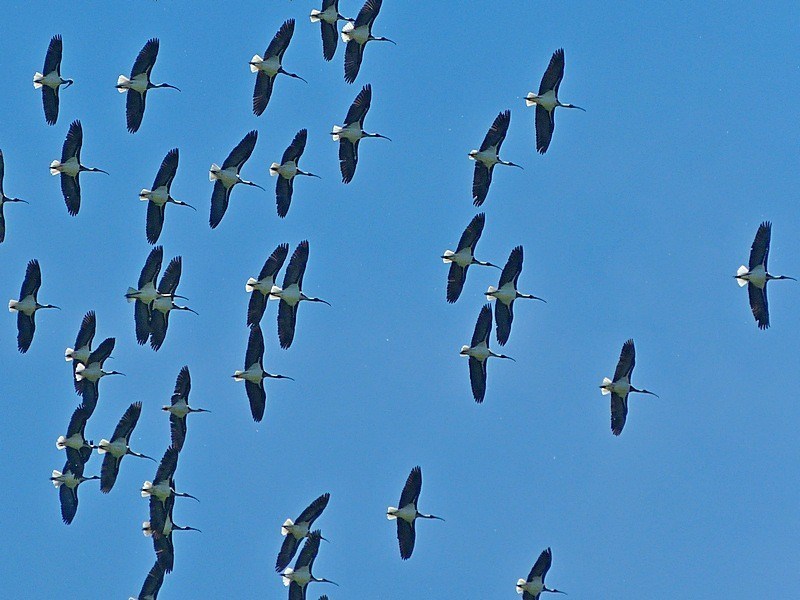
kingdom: Animalia
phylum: Chordata
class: Aves
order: Pelecaniformes
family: Threskiornithidae
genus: Threskiornis
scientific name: Threskiornis spinicollis
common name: Straw-necked ibis
